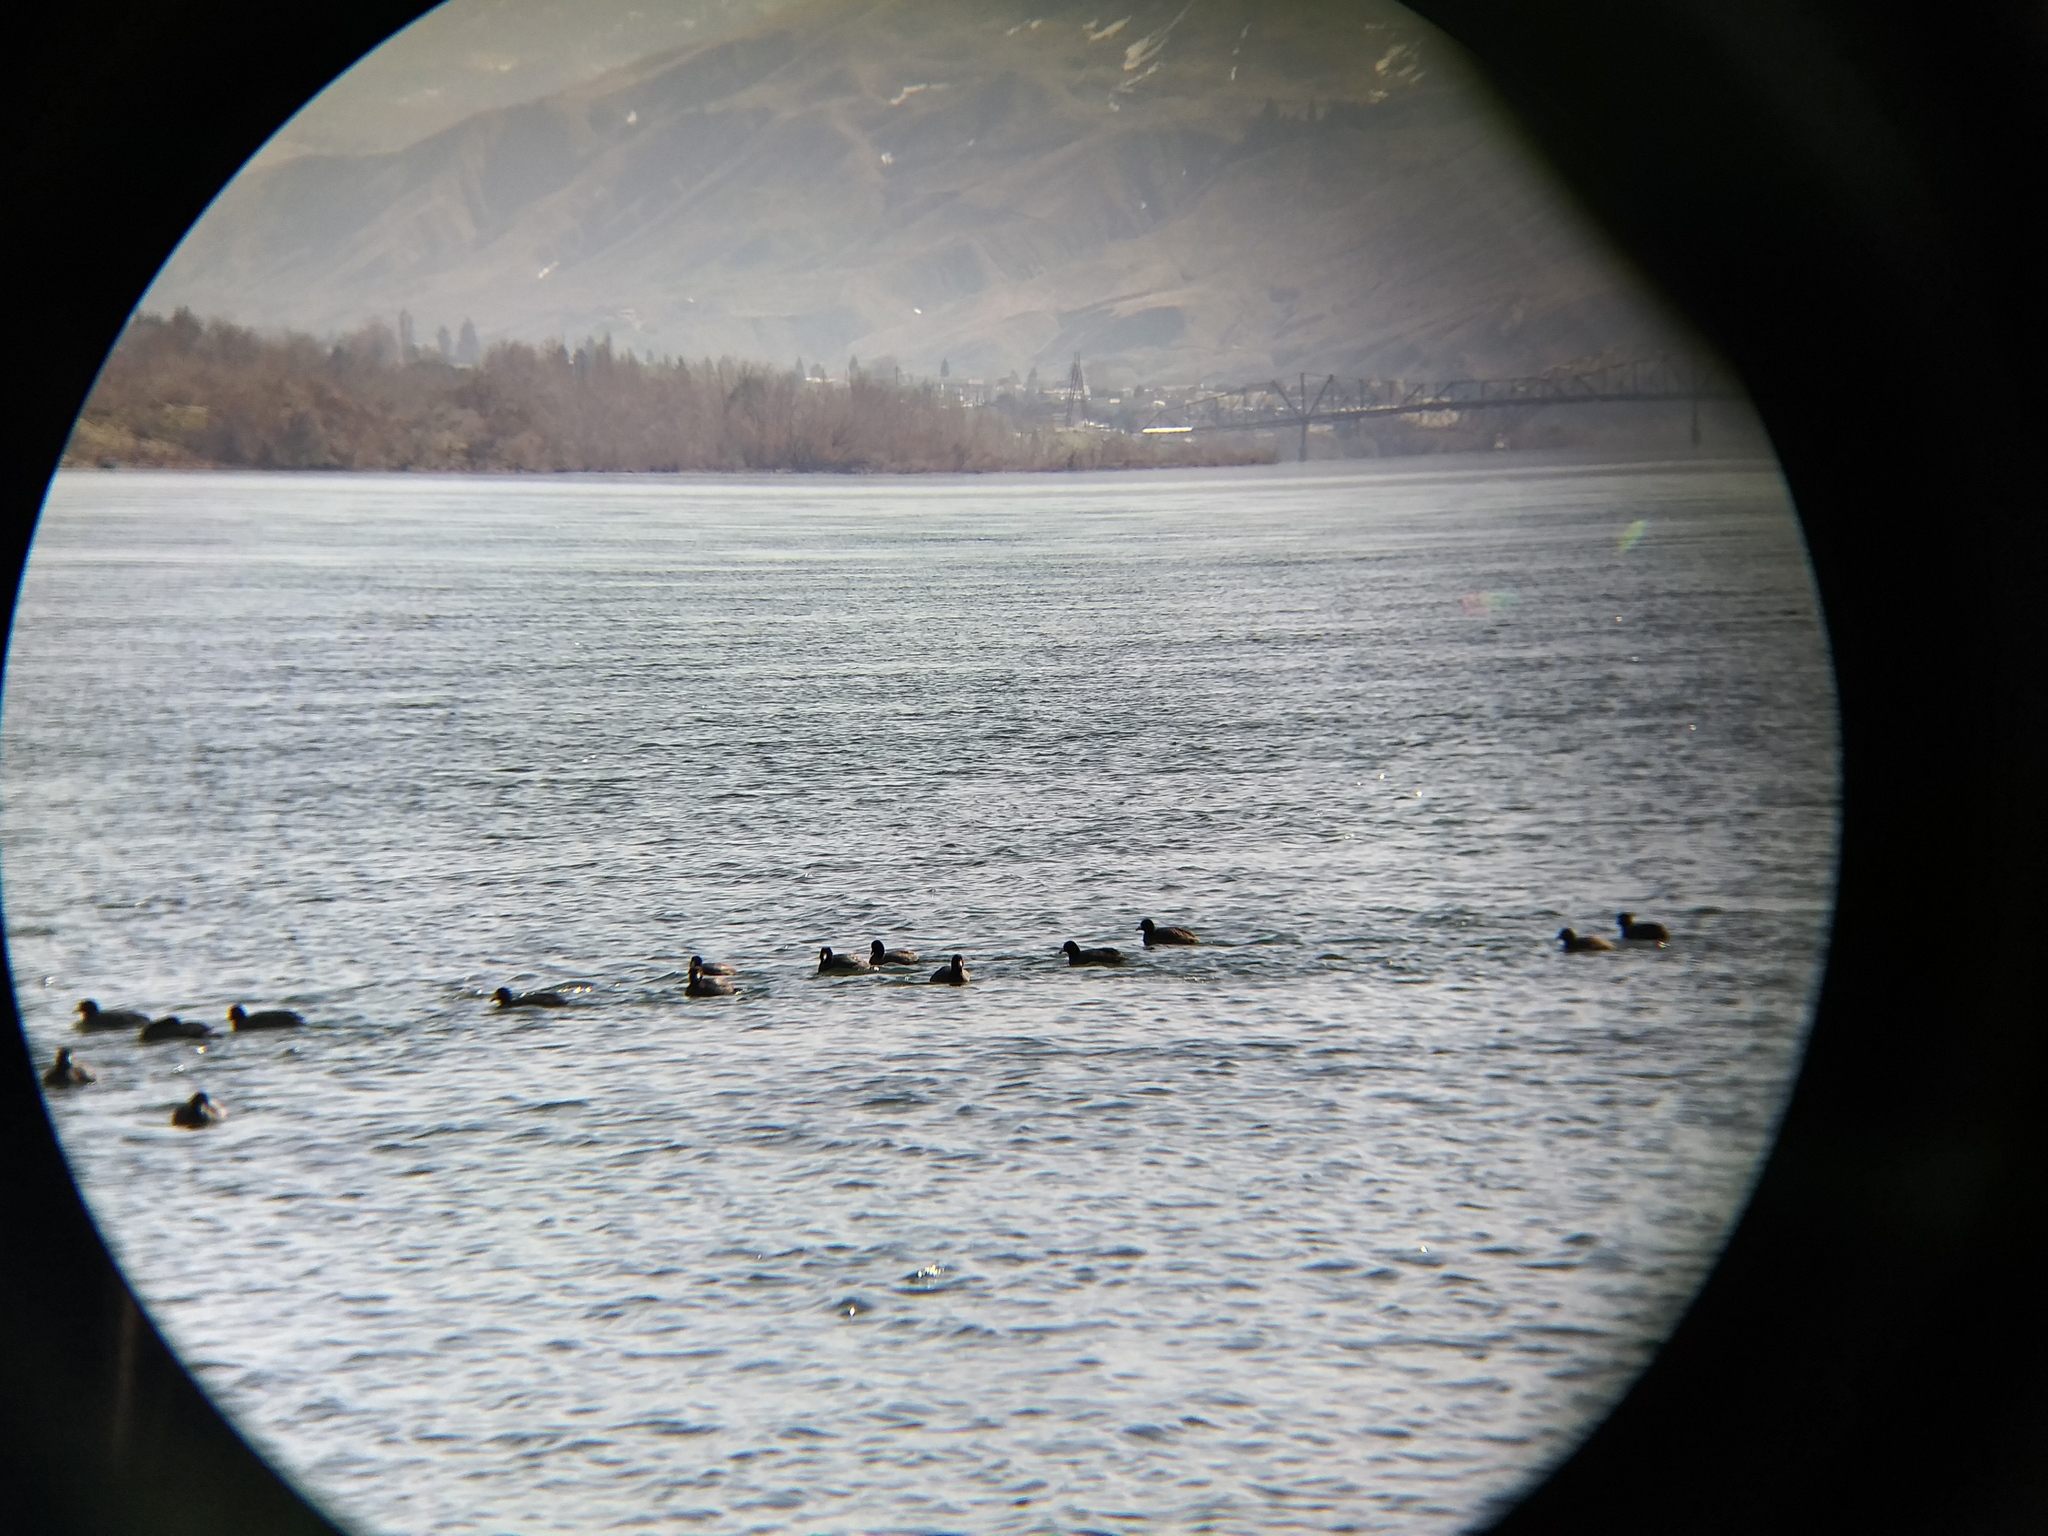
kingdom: Animalia
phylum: Chordata
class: Aves
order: Gruiformes
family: Rallidae
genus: Fulica
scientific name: Fulica americana
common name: American coot
